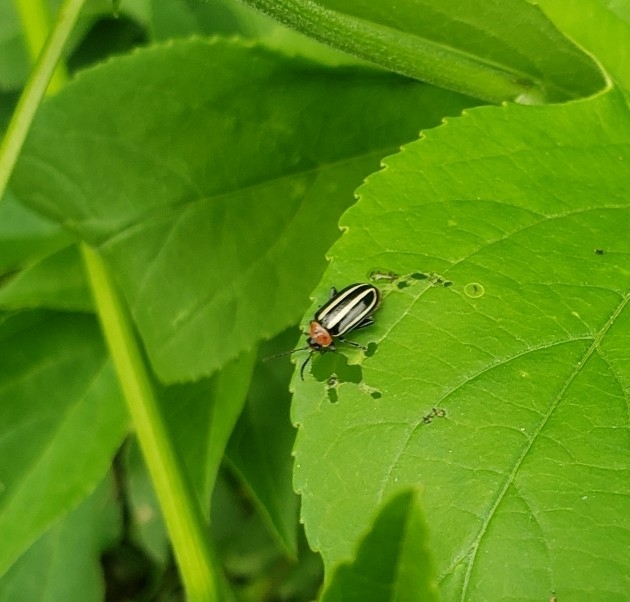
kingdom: Animalia
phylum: Arthropoda
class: Insecta
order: Coleoptera
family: Chrysomelidae
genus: Disonycha
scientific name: Disonycha glabrata
